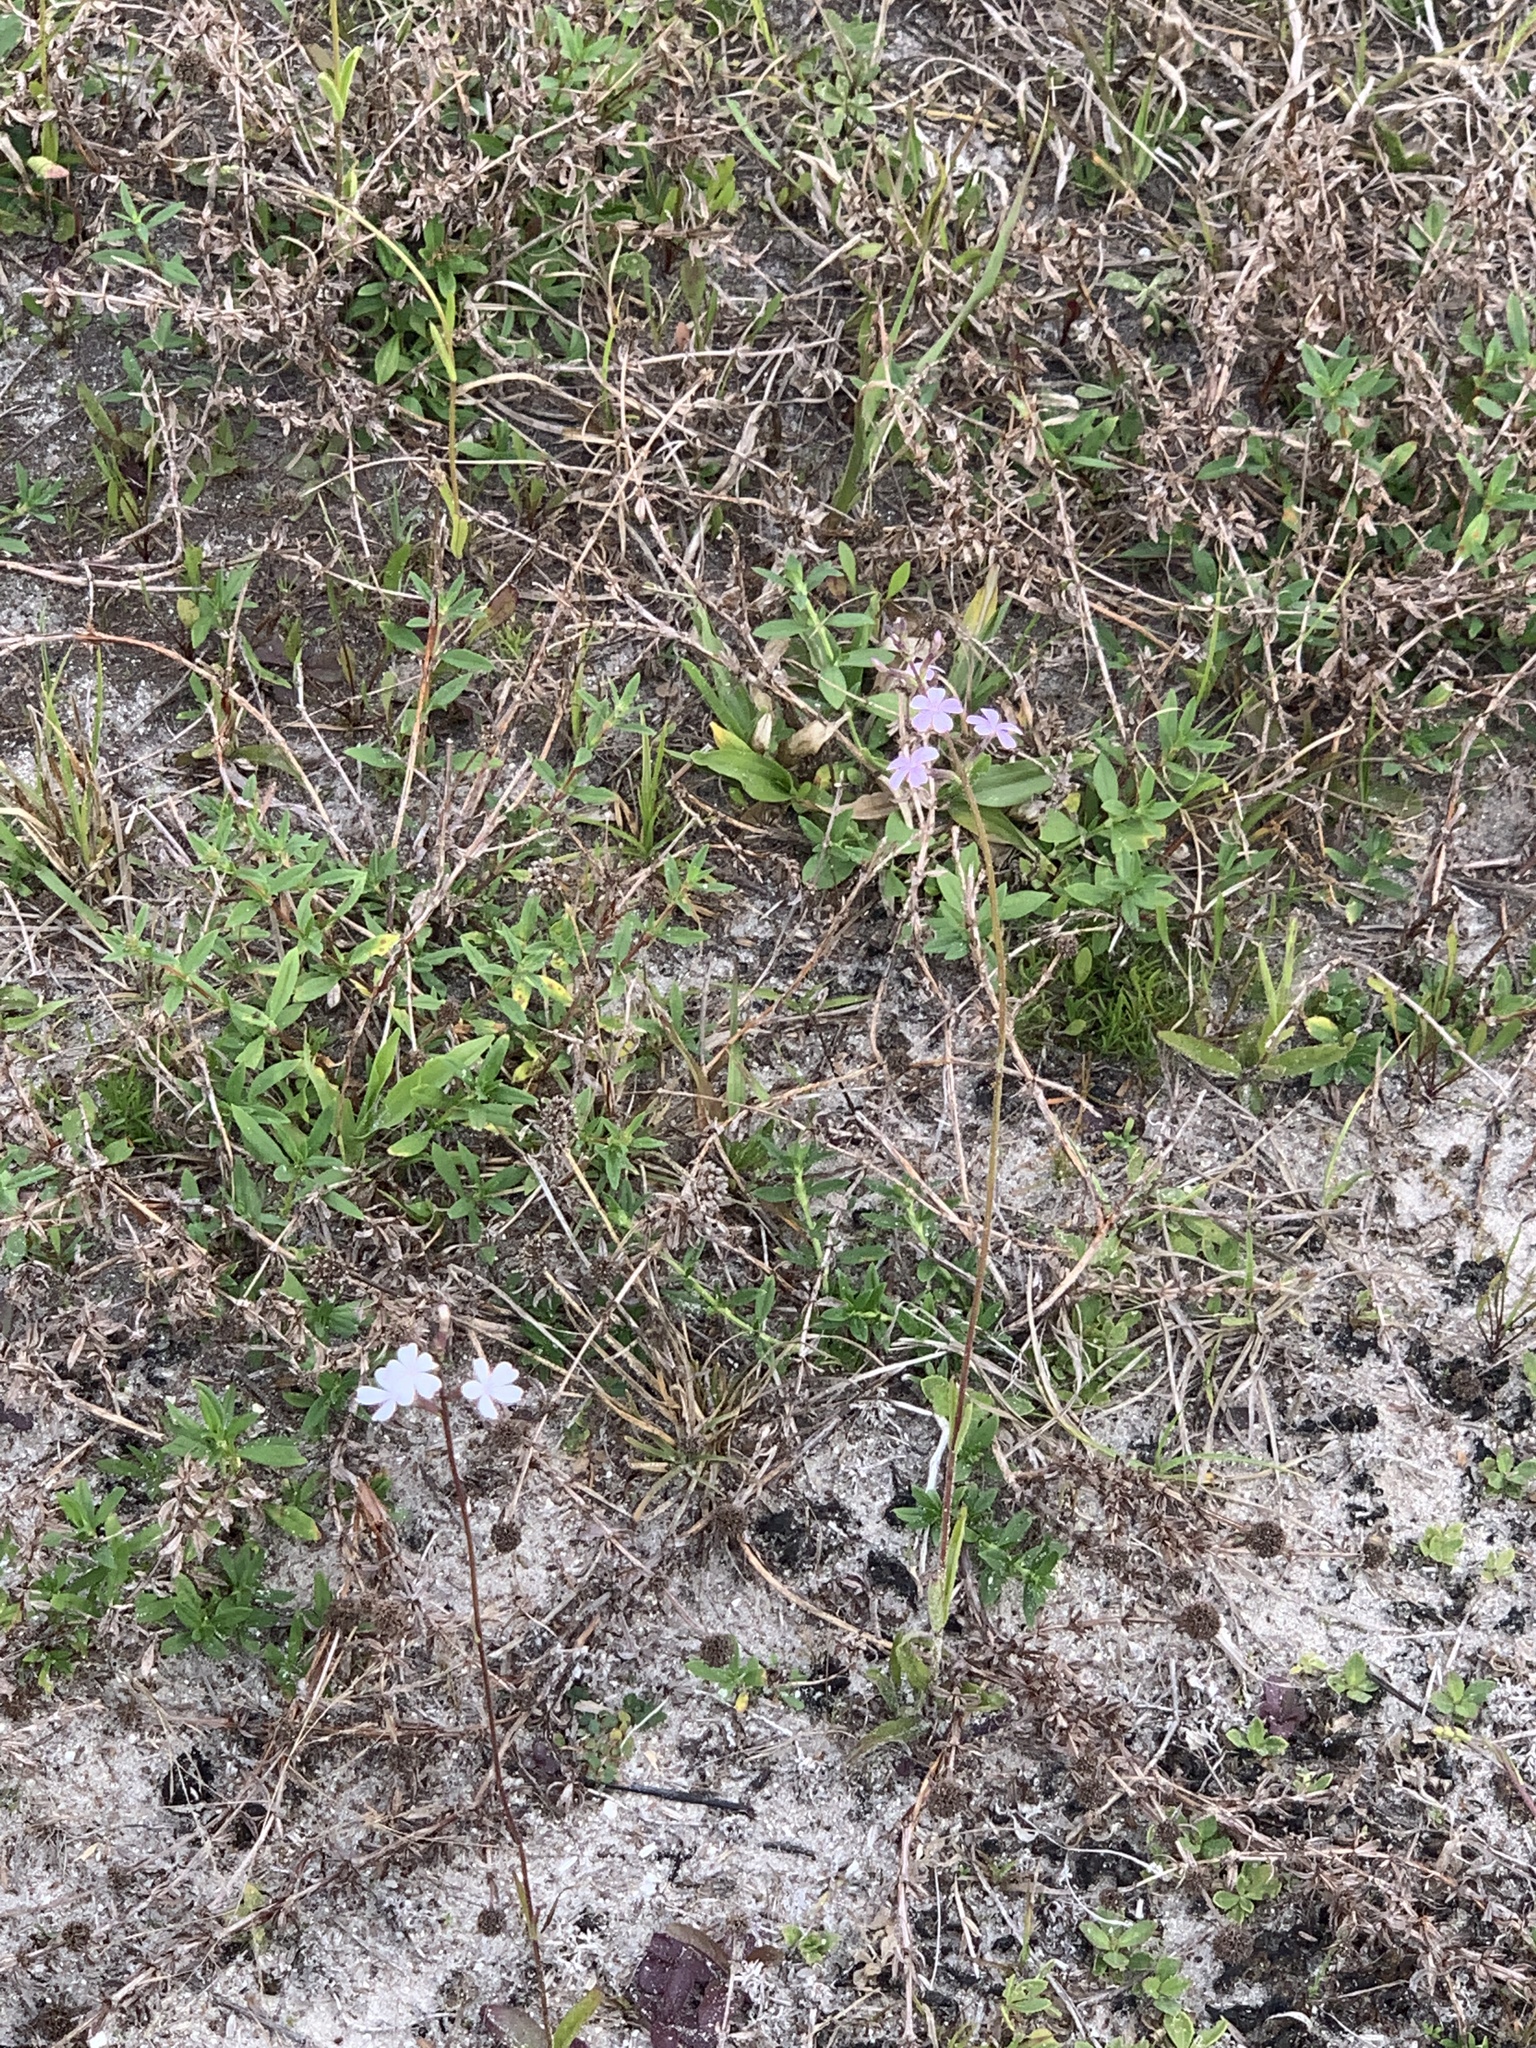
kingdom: Plantae
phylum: Tracheophyta
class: Magnoliopsida
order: Lamiales
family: Orobanchaceae
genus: Buchnera
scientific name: Buchnera floridana
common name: Florida bluehearts
